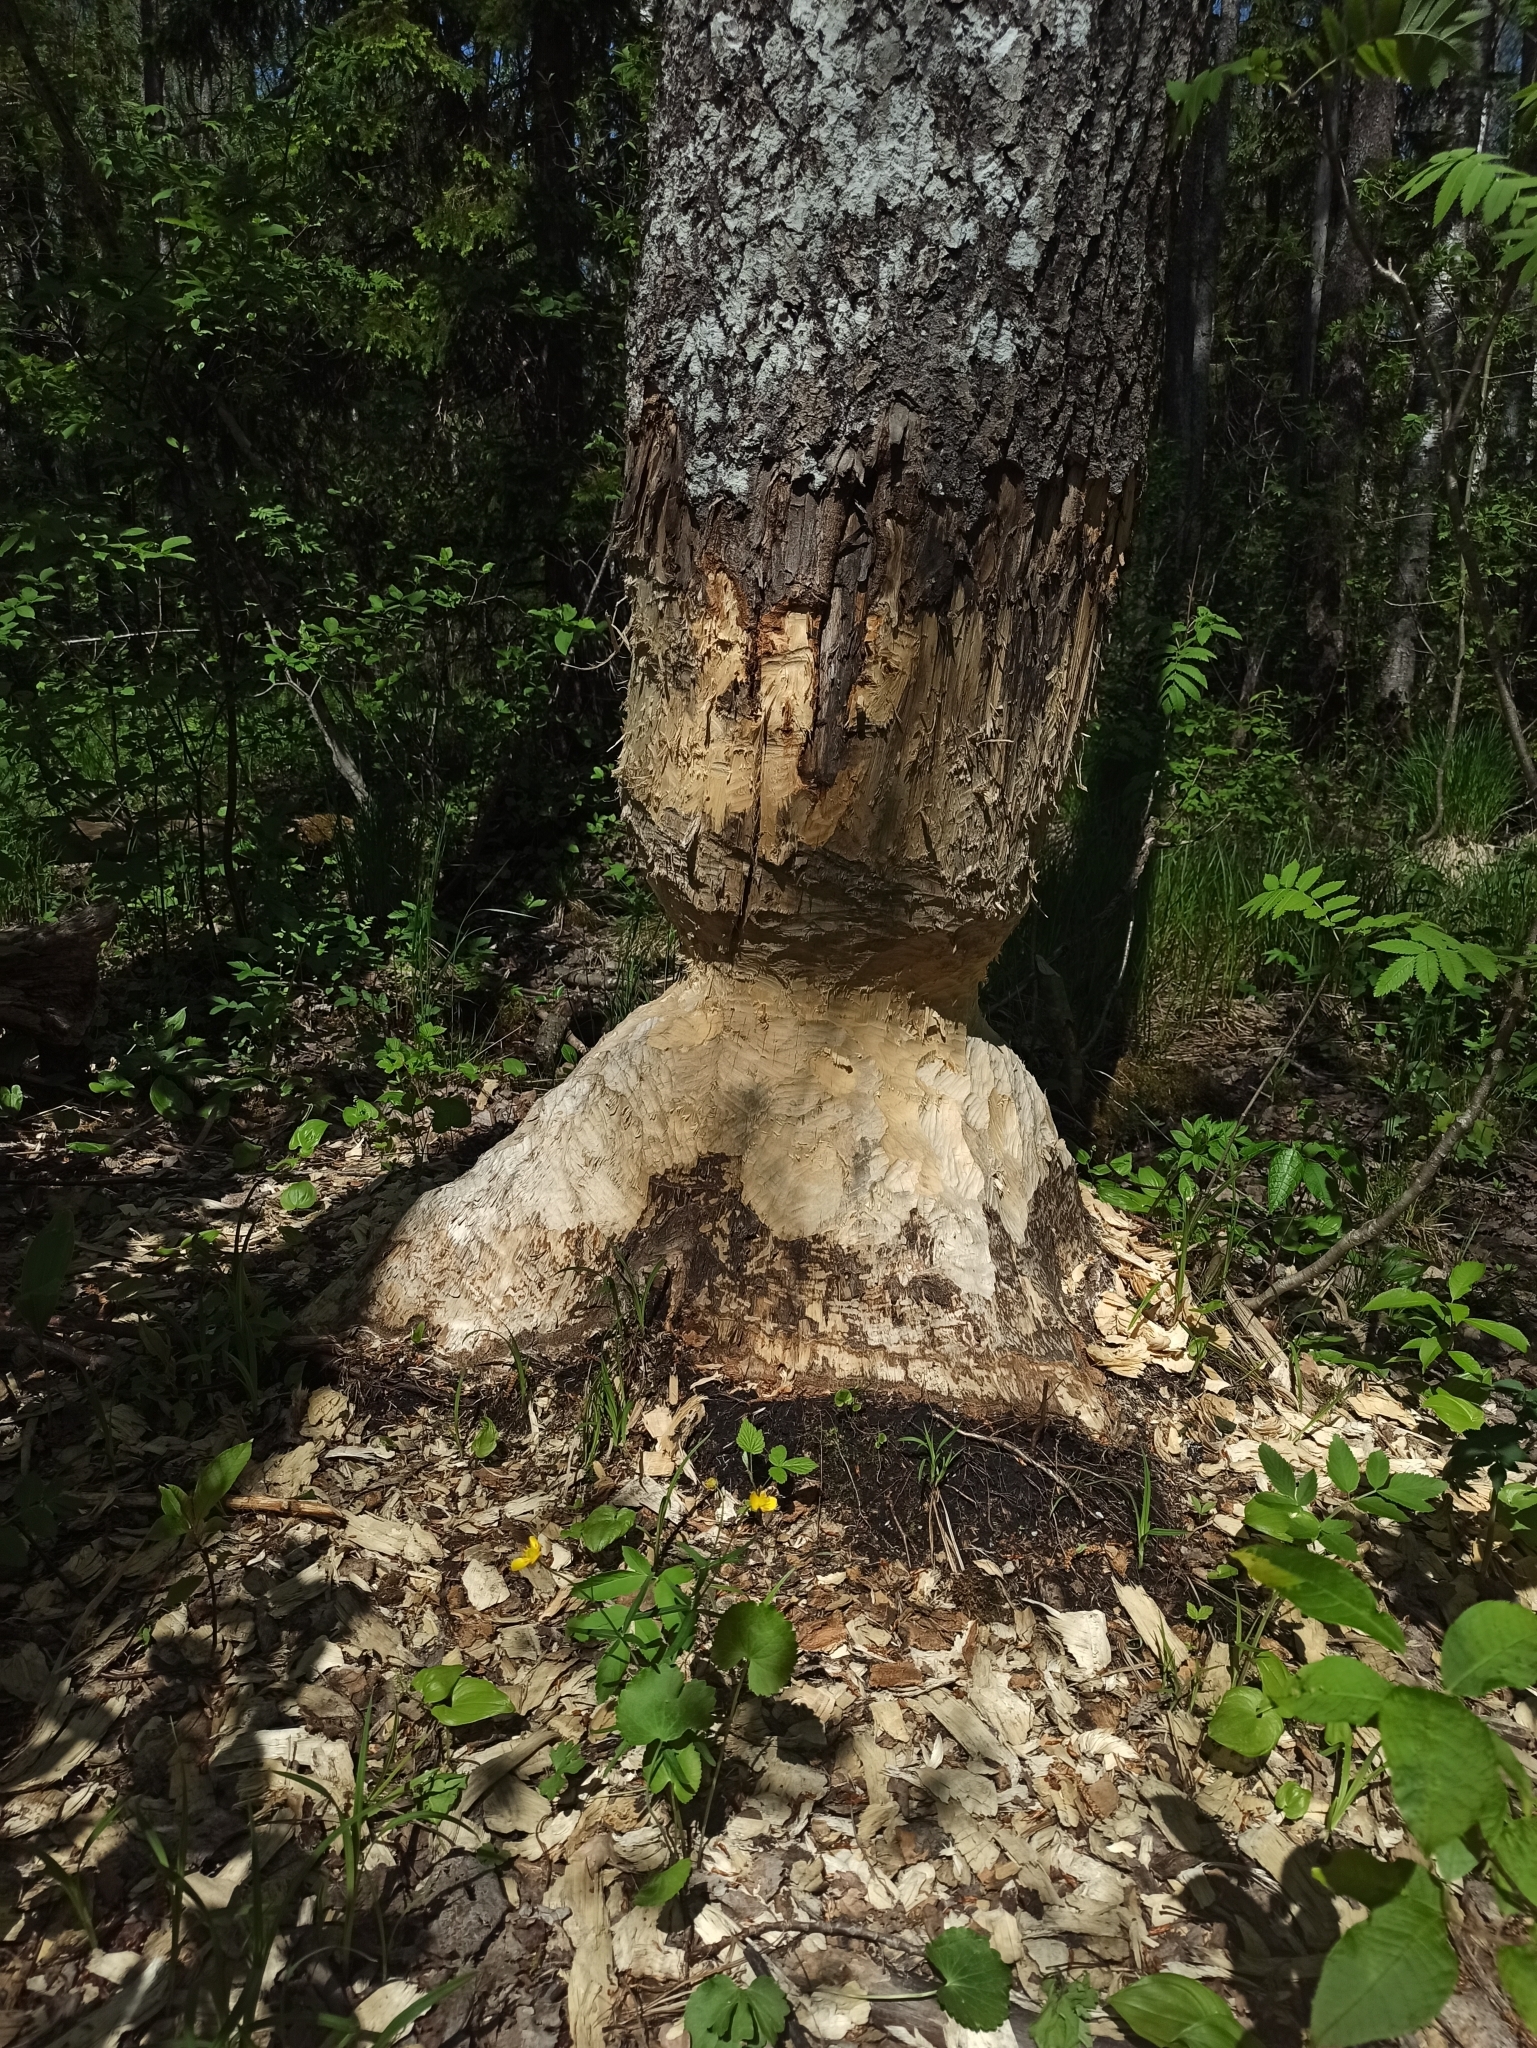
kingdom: Animalia
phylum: Chordata
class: Mammalia
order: Rodentia
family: Castoridae
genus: Castor
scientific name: Castor fiber
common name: Eurasian beaver
